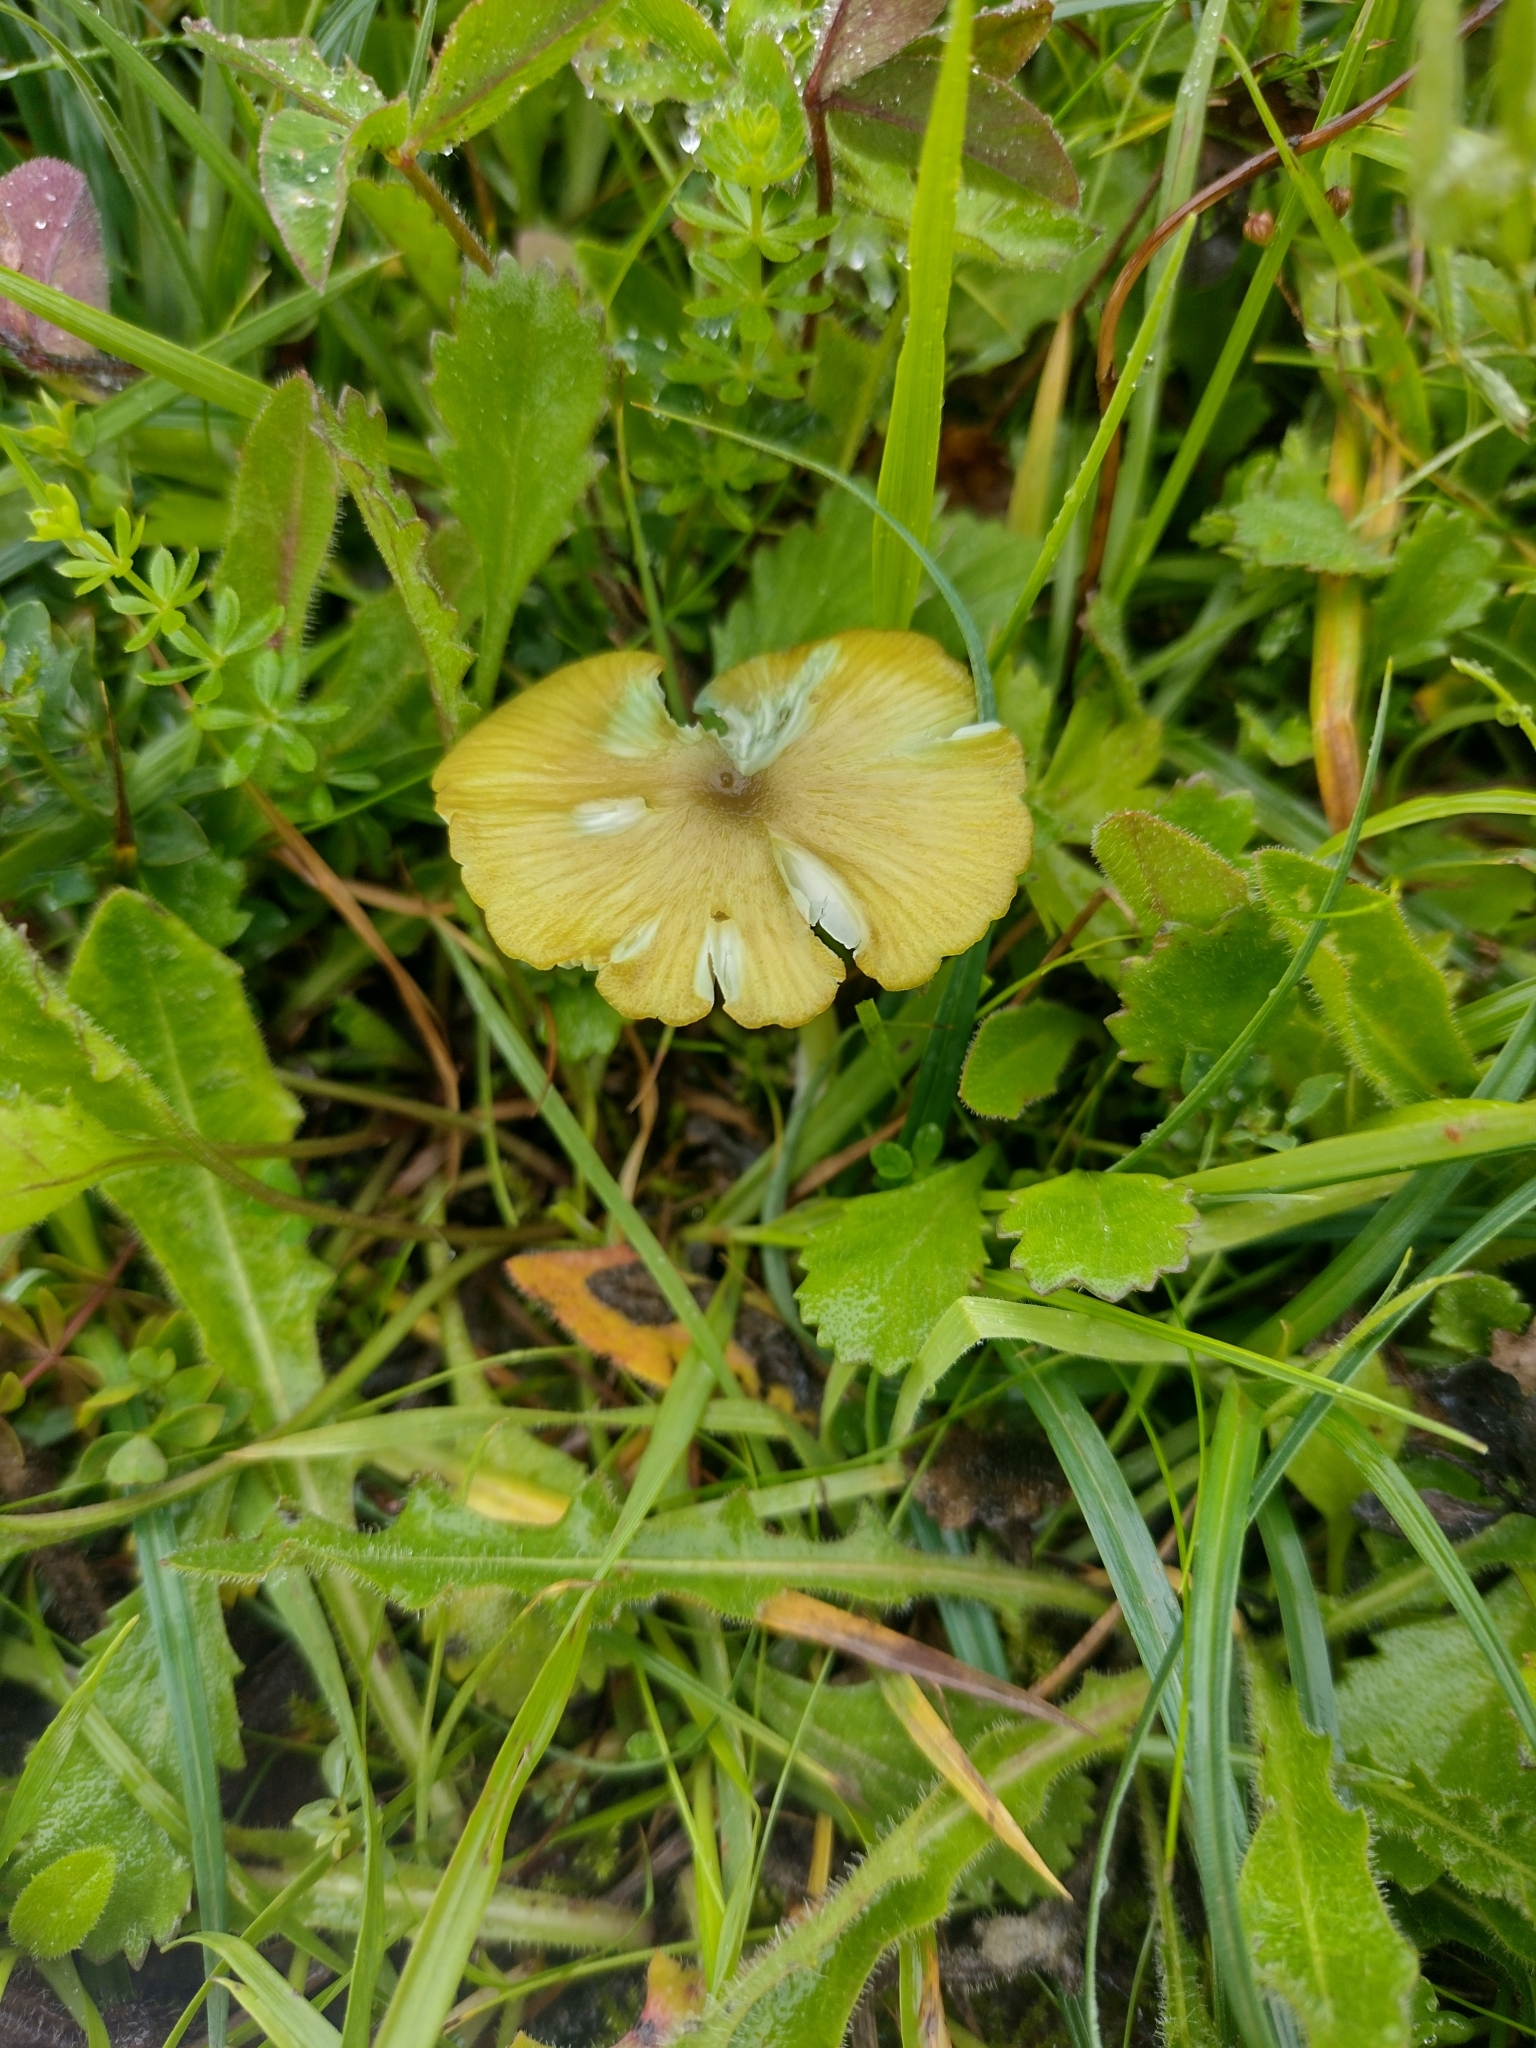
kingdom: Fungi
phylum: Basidiomycota
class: Agaricomycetes
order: Agaricales
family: Entolomataceae
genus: Entoloma
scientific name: Entoloma incanum
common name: Mousepee pinkgill
